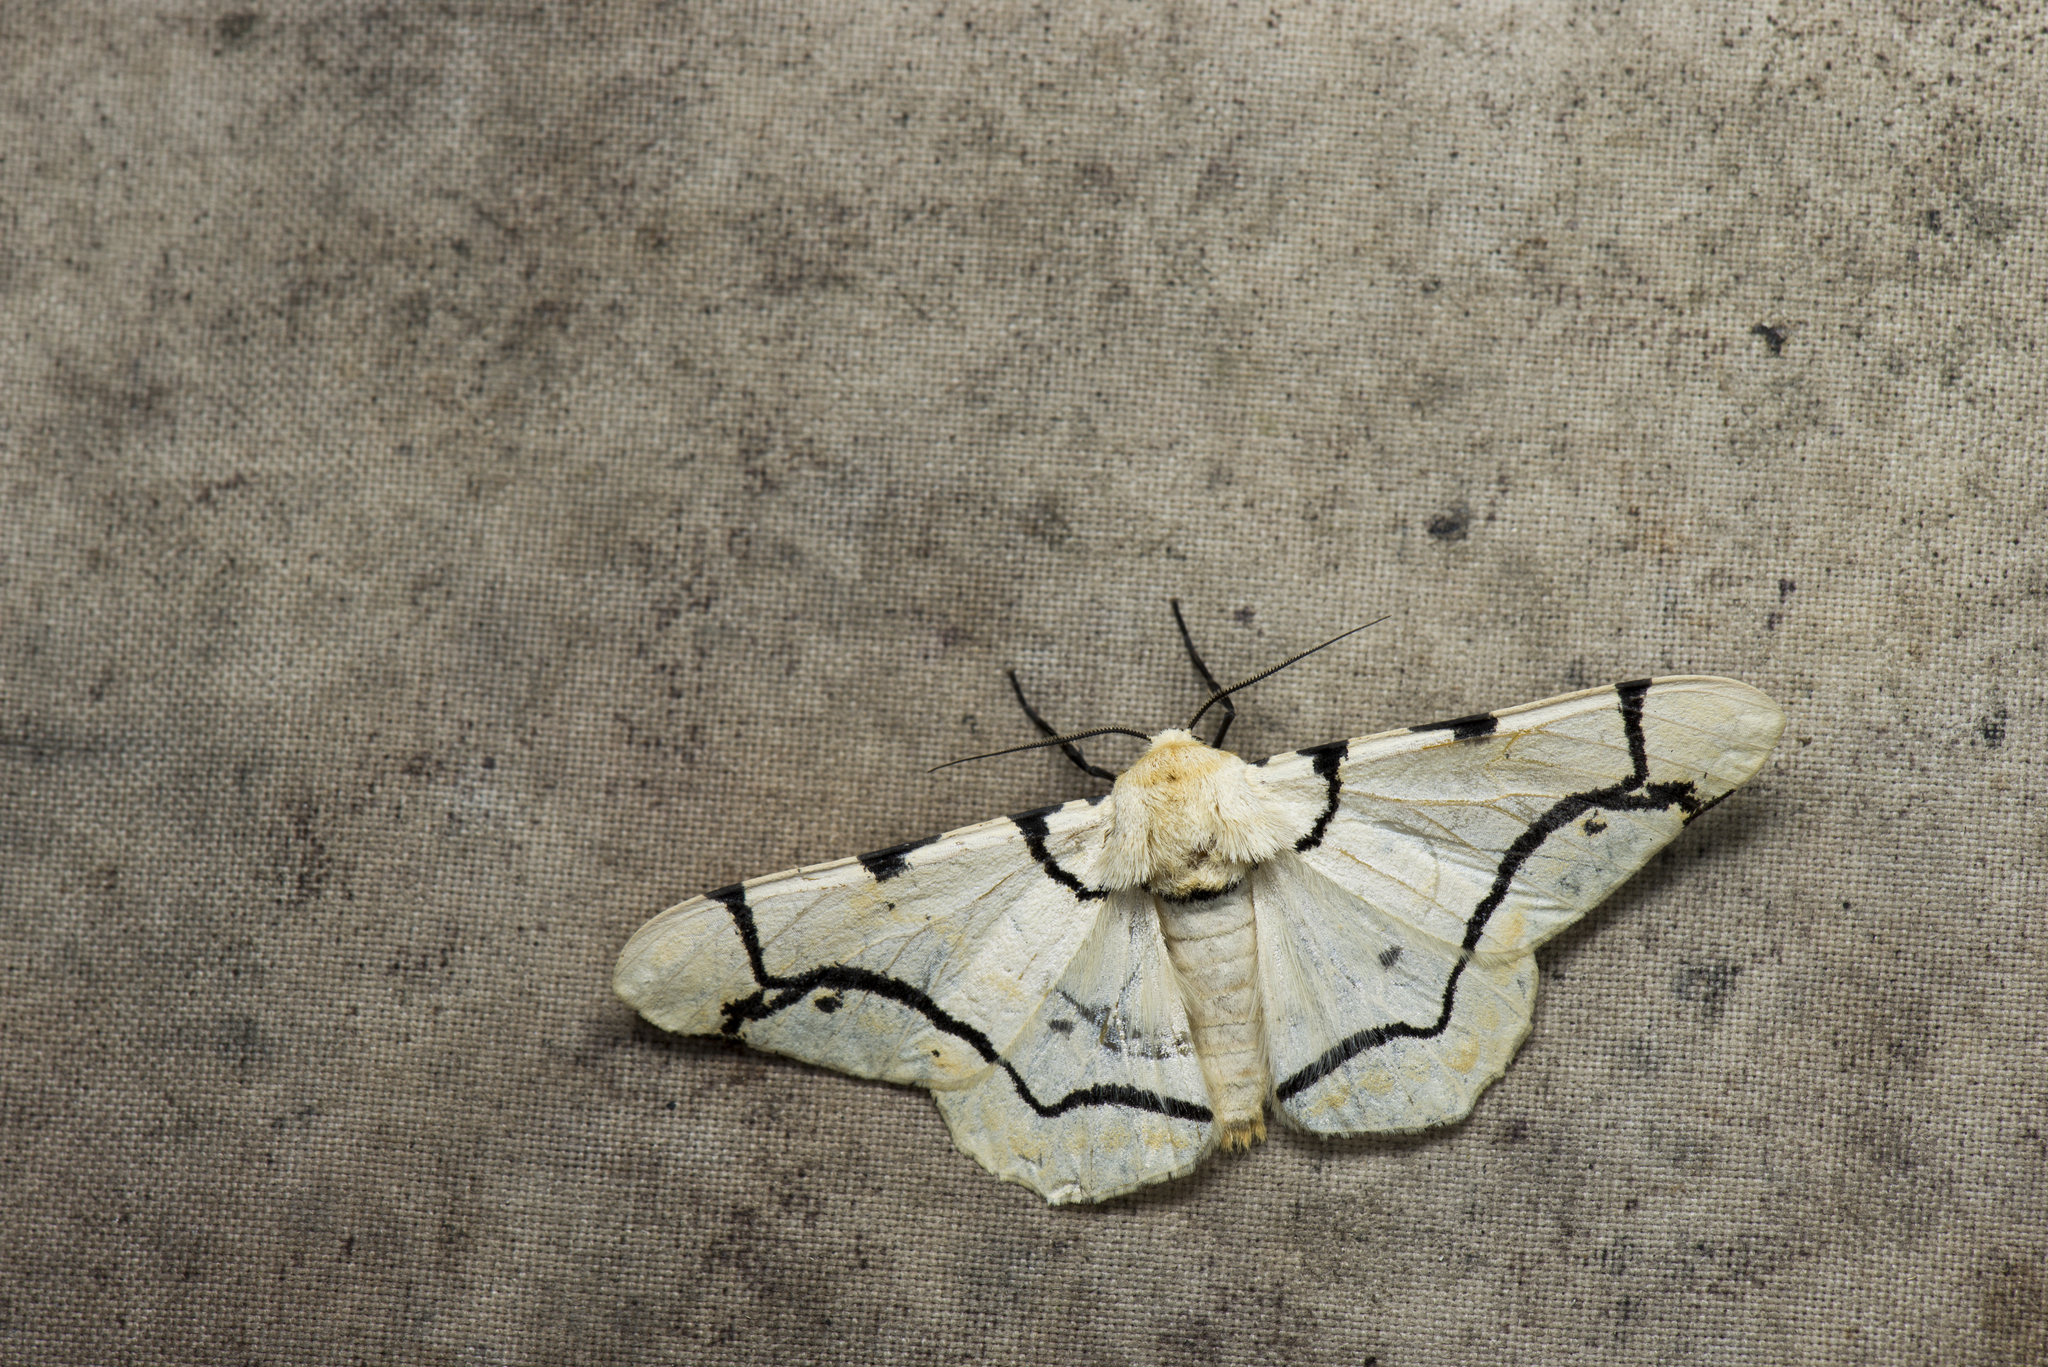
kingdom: Animalia
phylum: Arthropoda
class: Insecta
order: Lepidoptera
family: Geometridae
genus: Biston
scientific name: Biston perclara
